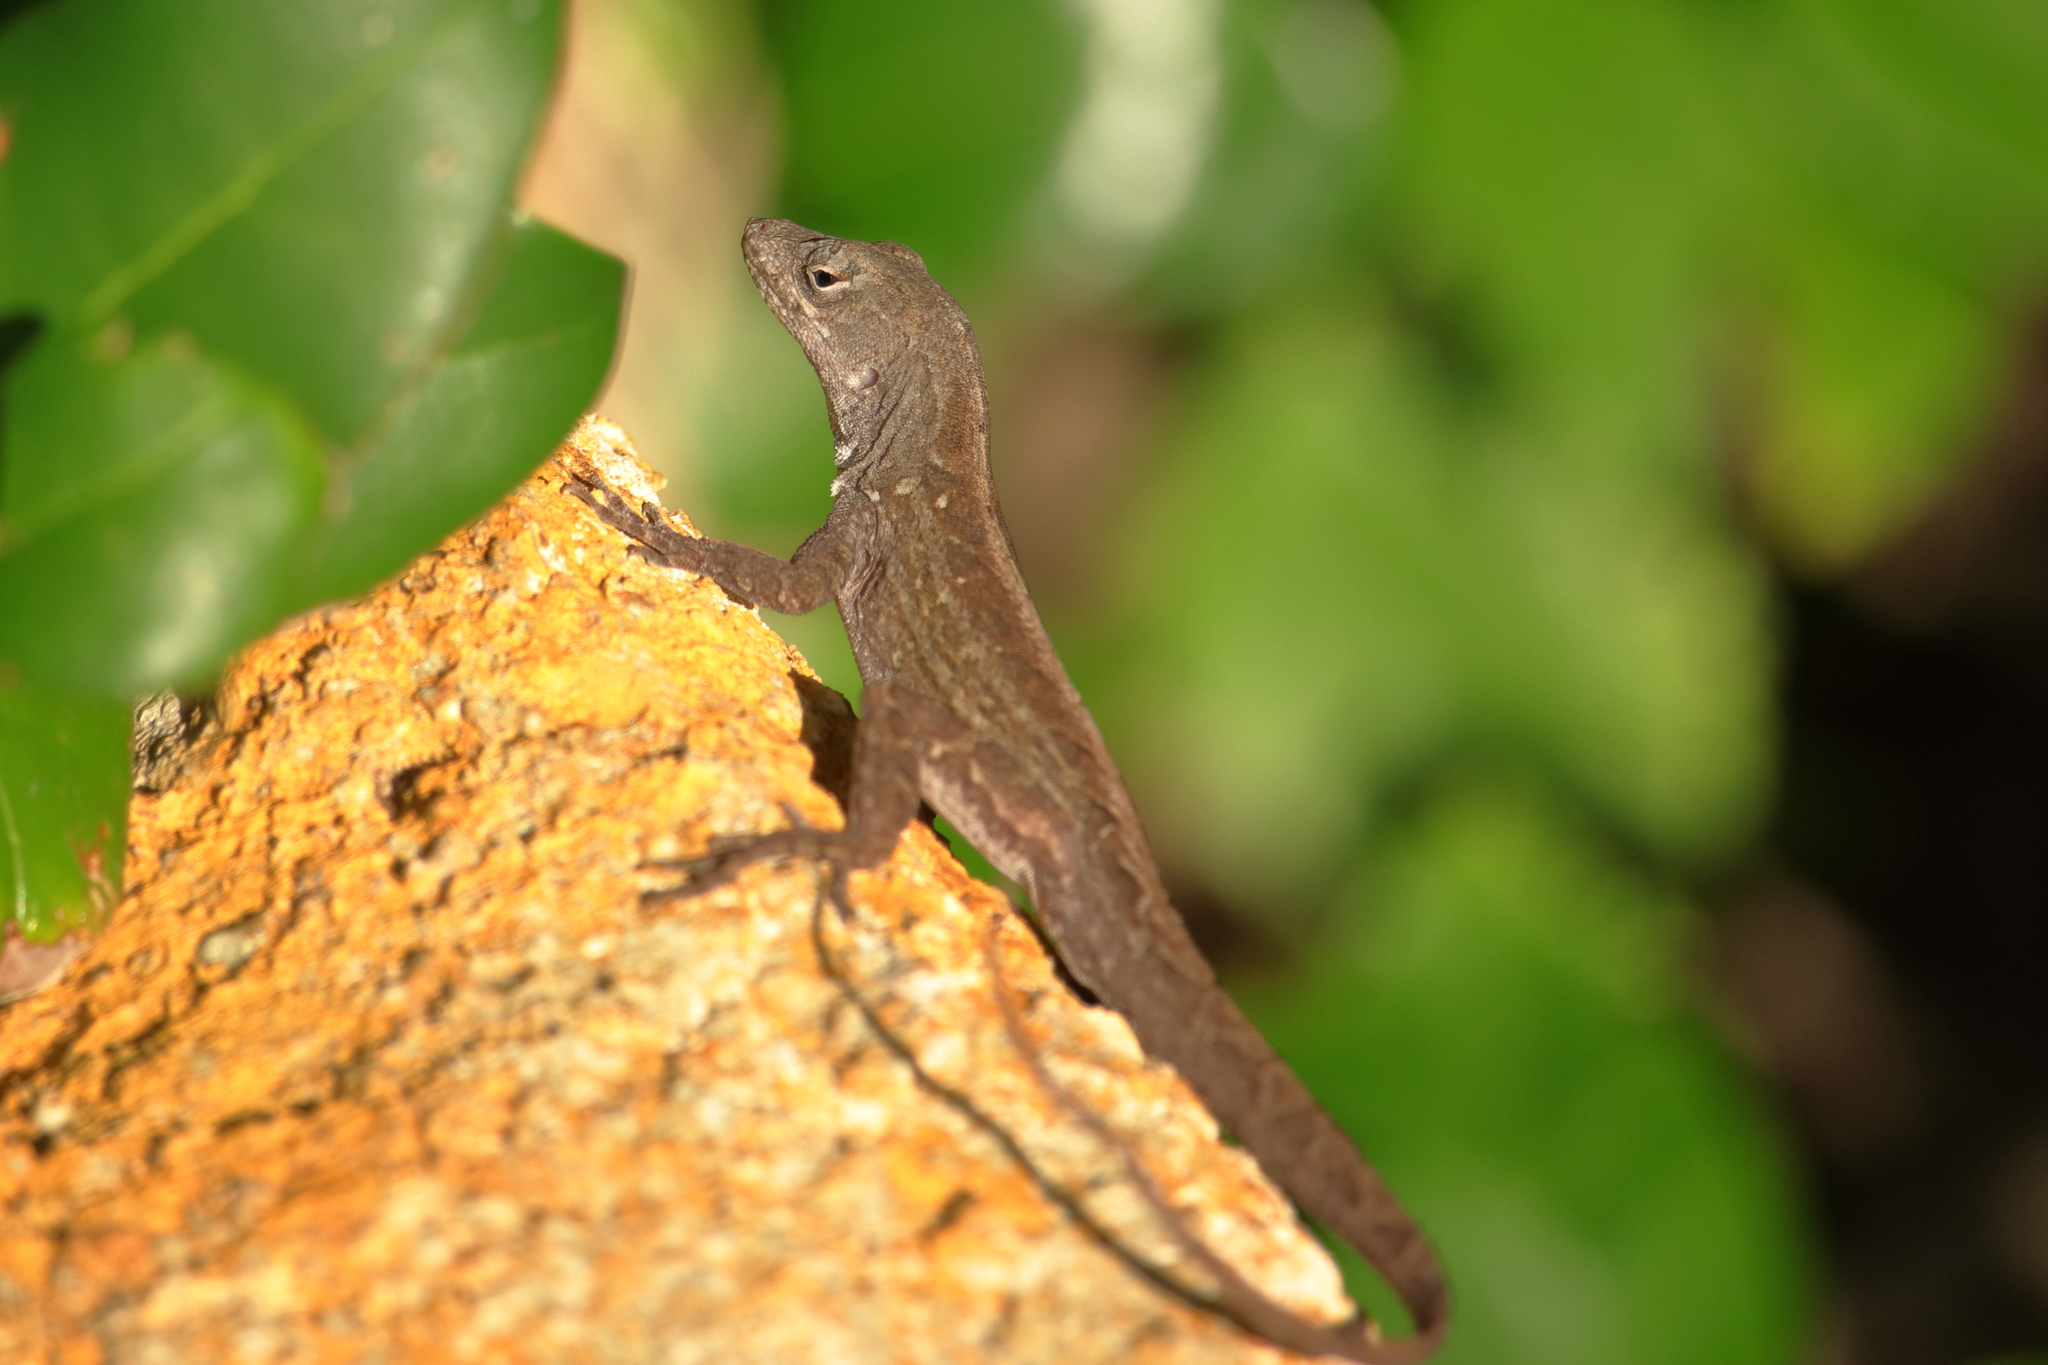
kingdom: Animalia
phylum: Chordata
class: Squamata
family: Dactyloidae
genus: Anolis
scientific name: Anolis sagrei
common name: Brown anole
